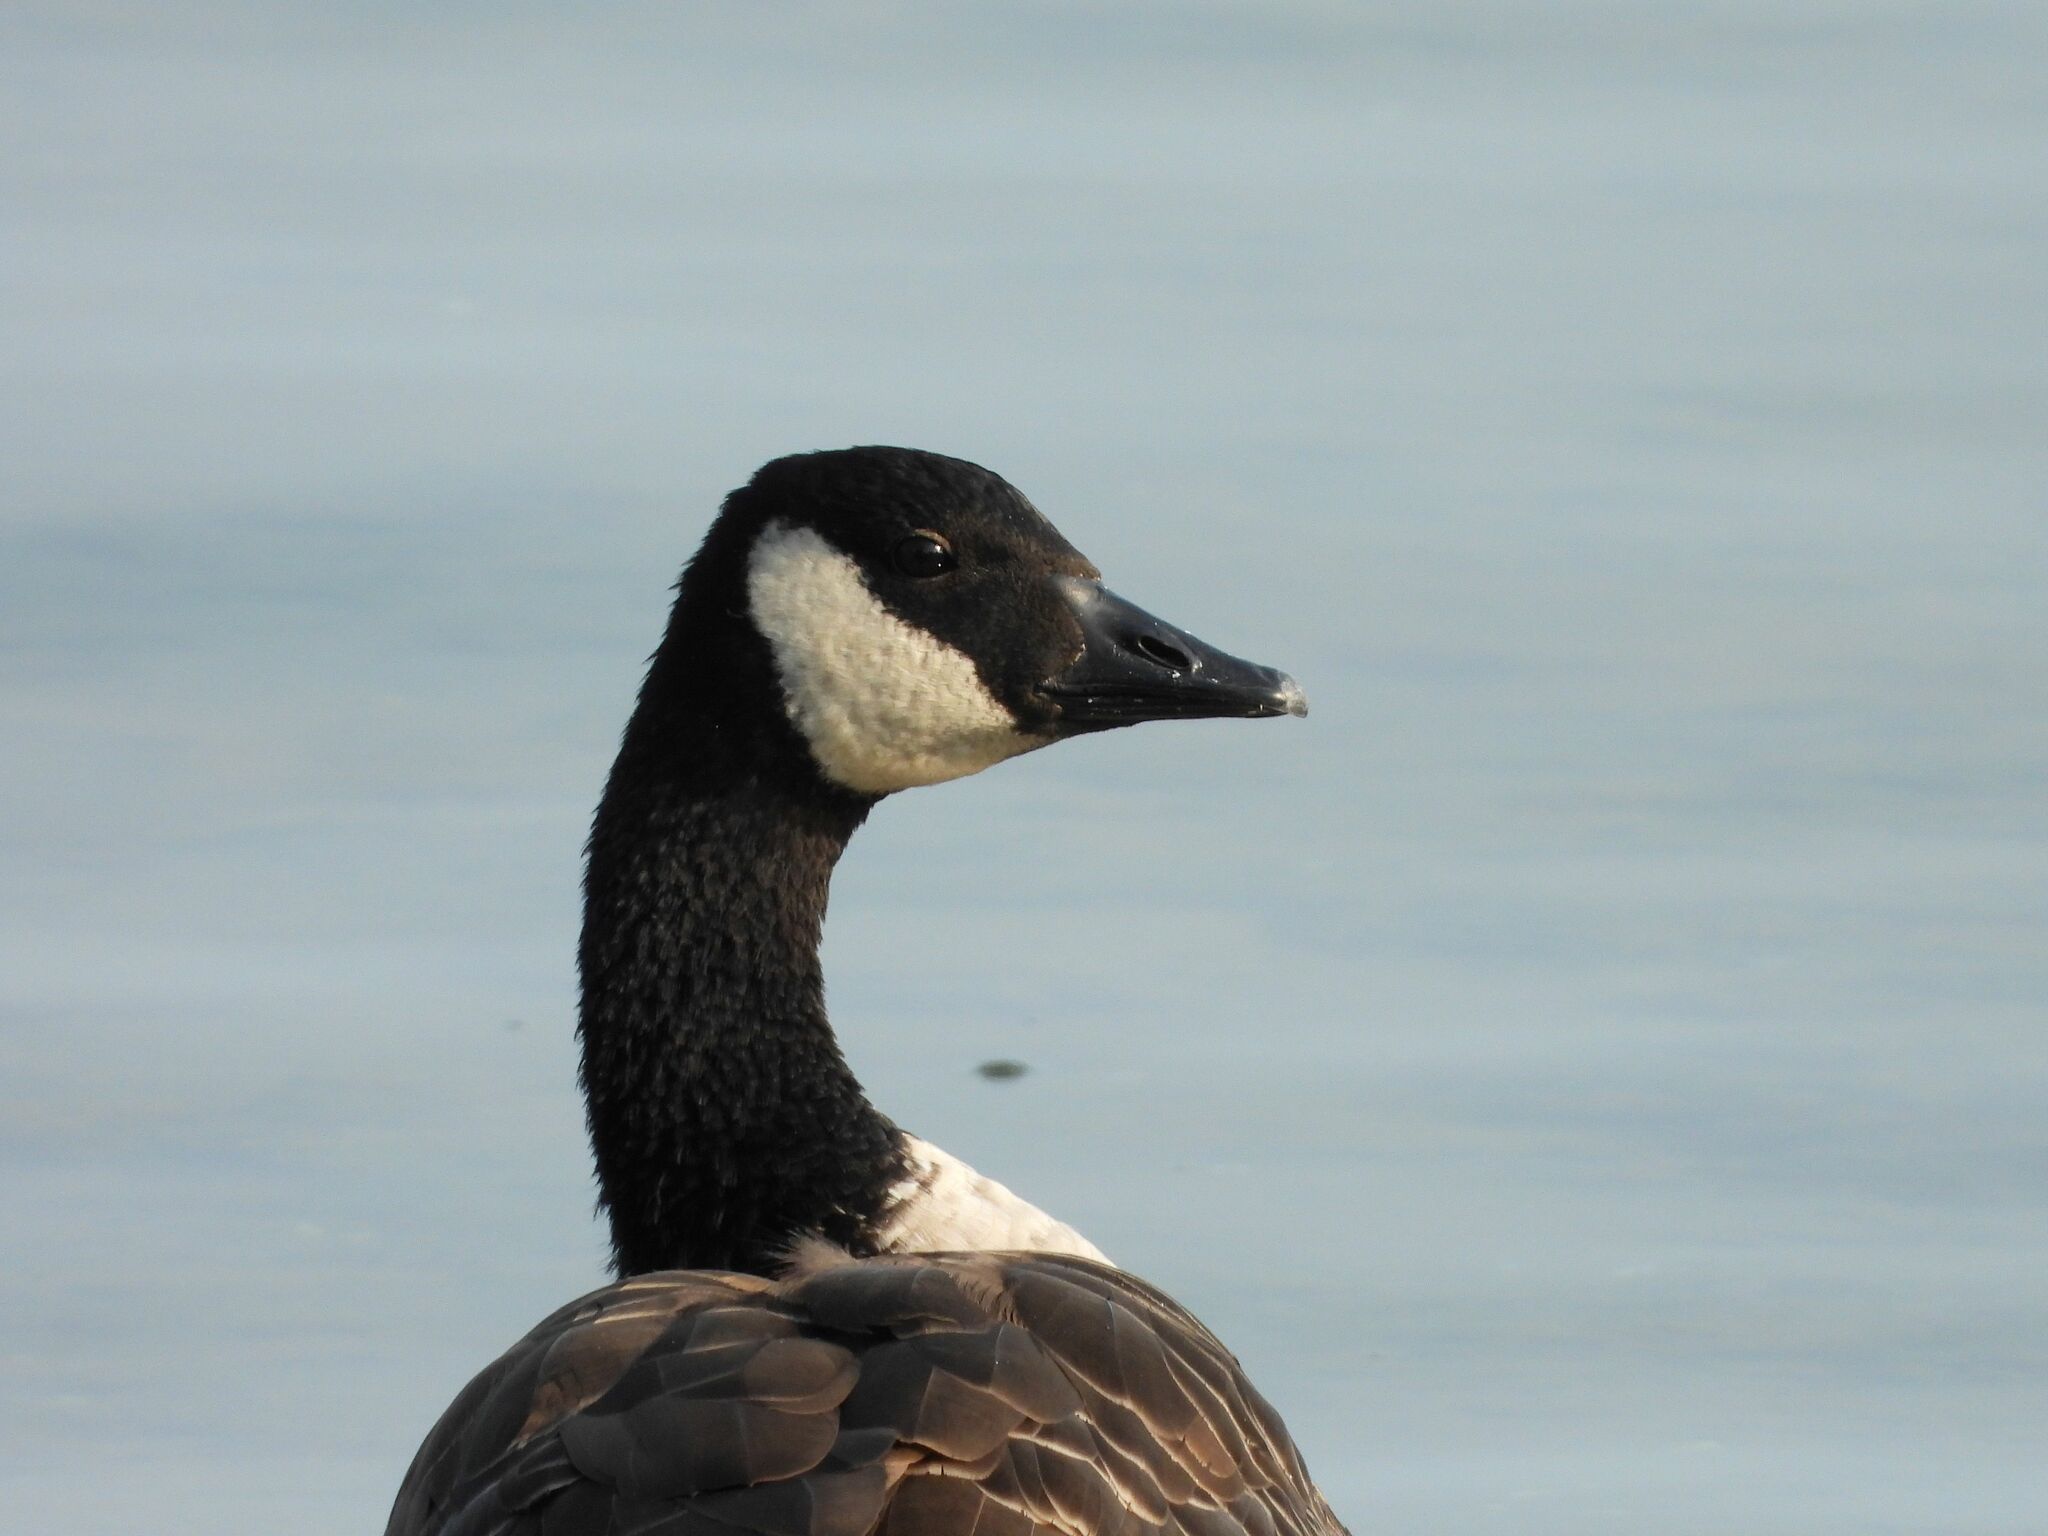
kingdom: Animalia
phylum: Chordata
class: Aves
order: Anseriformes
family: Anatidae
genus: Branta
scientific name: Branta canadensis
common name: Canada goose
